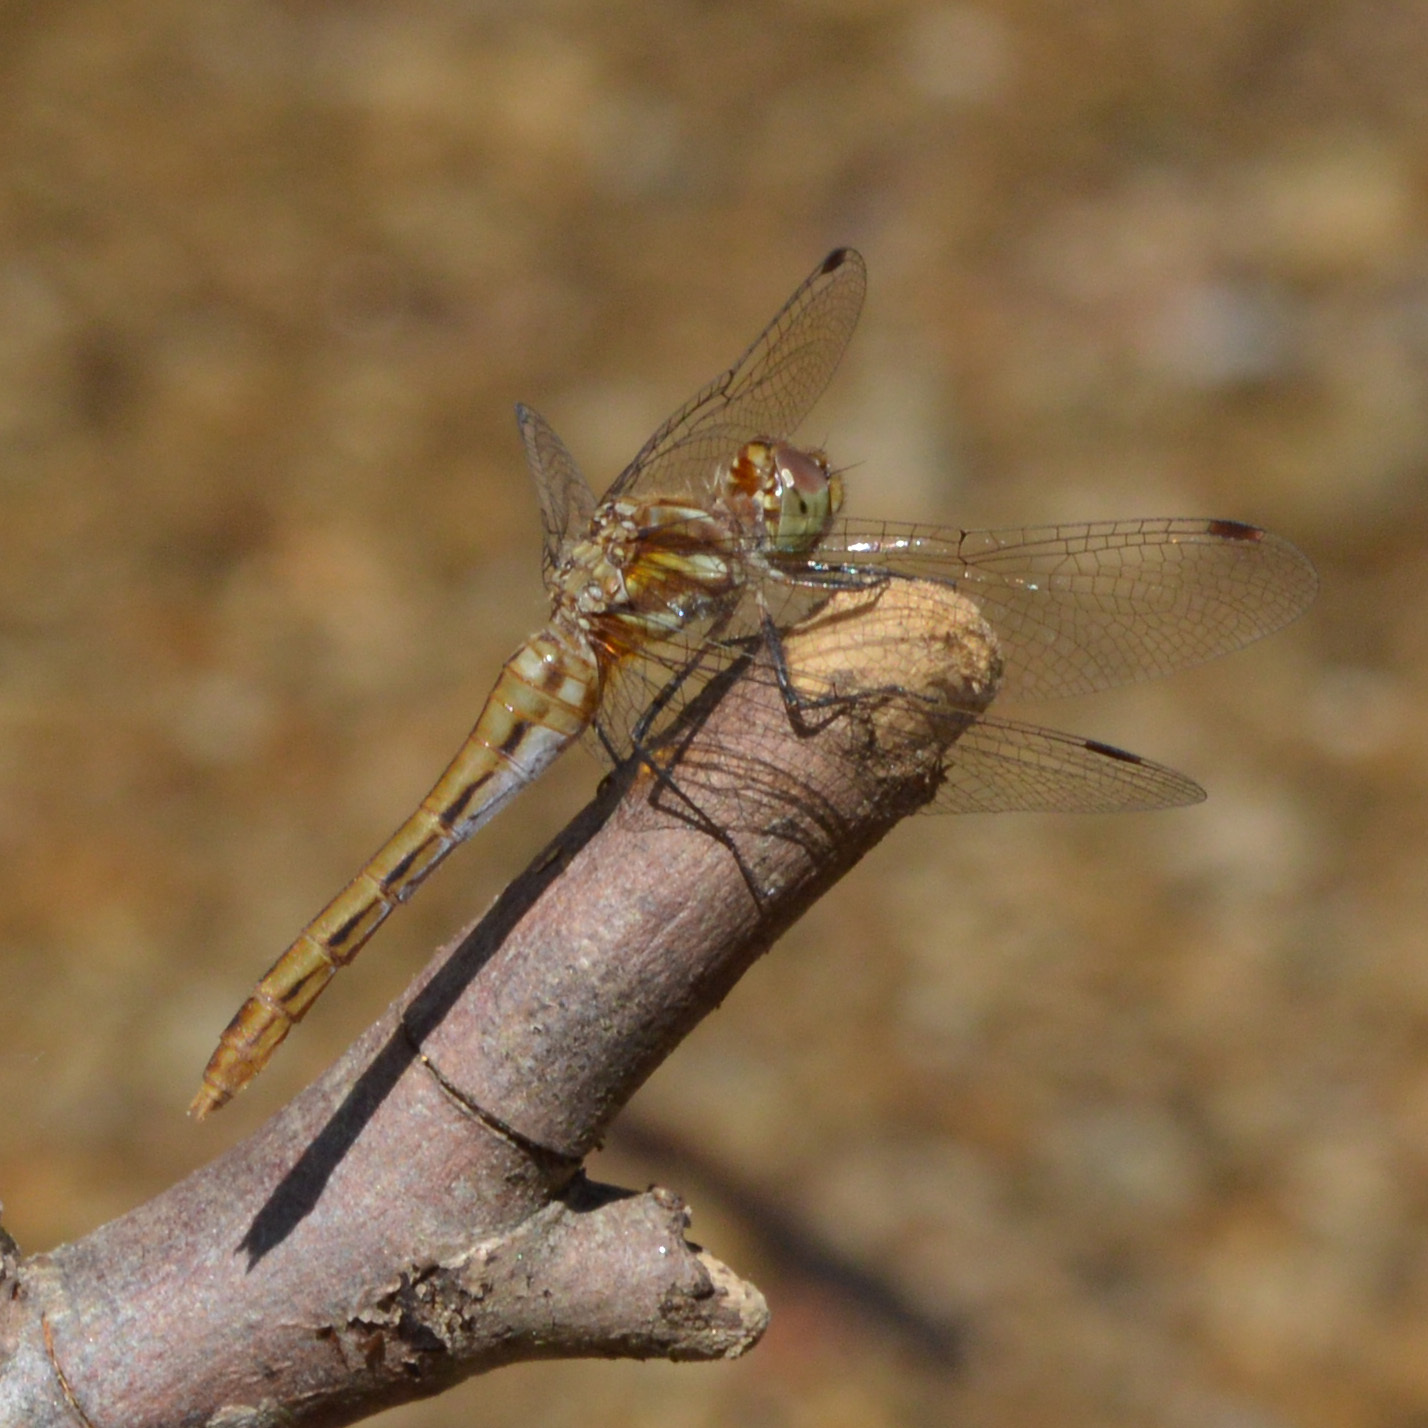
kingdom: Animalia
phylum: Arthropoda
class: Insecta
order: Odonata
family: Libellulidae
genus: Sympetrum
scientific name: Sympetrum pallipes
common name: Striped meadowhawk
